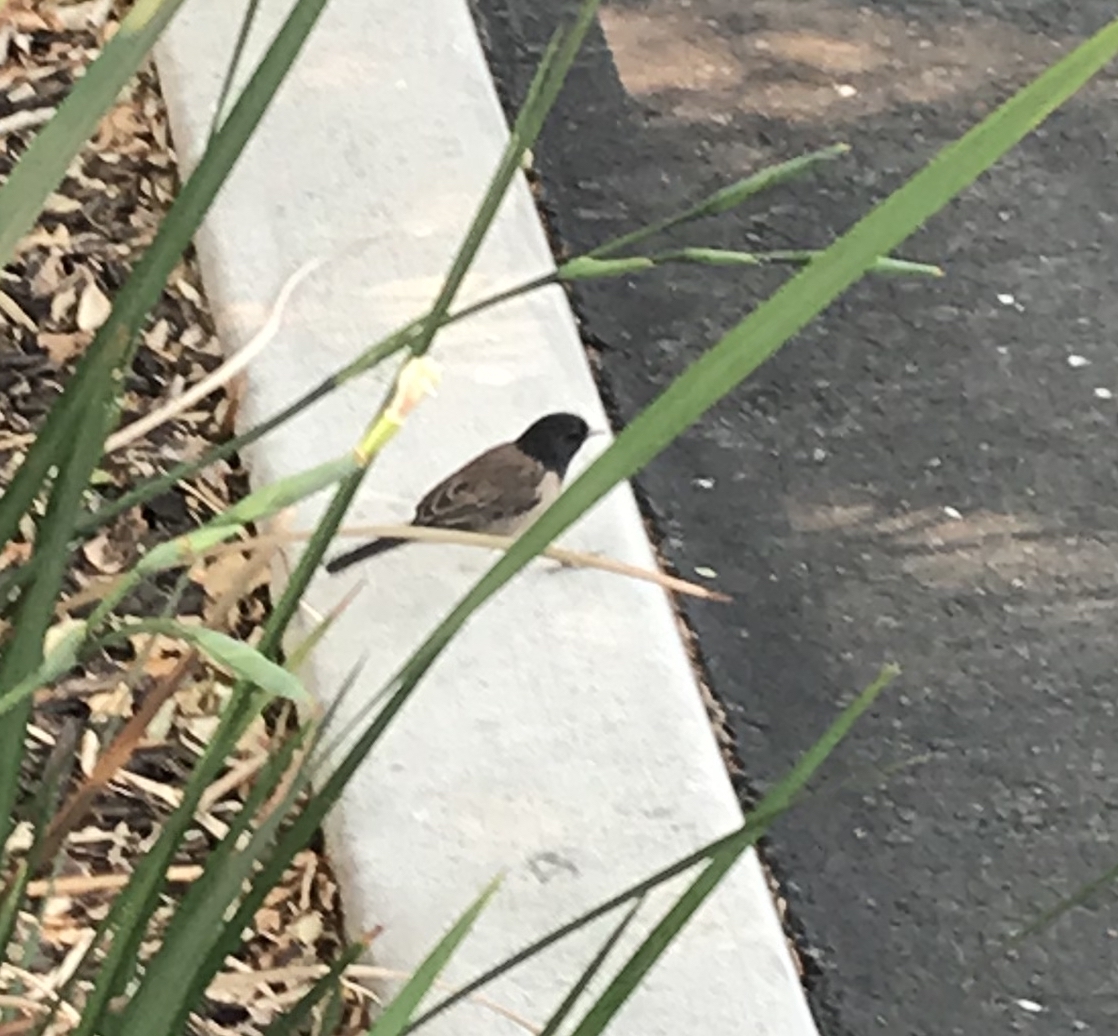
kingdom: Animalia
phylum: Chordata
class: Aves
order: Passeriformes
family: Passerellidae
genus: Junco
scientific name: Junco hyemalis
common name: Dark-eyed junco
